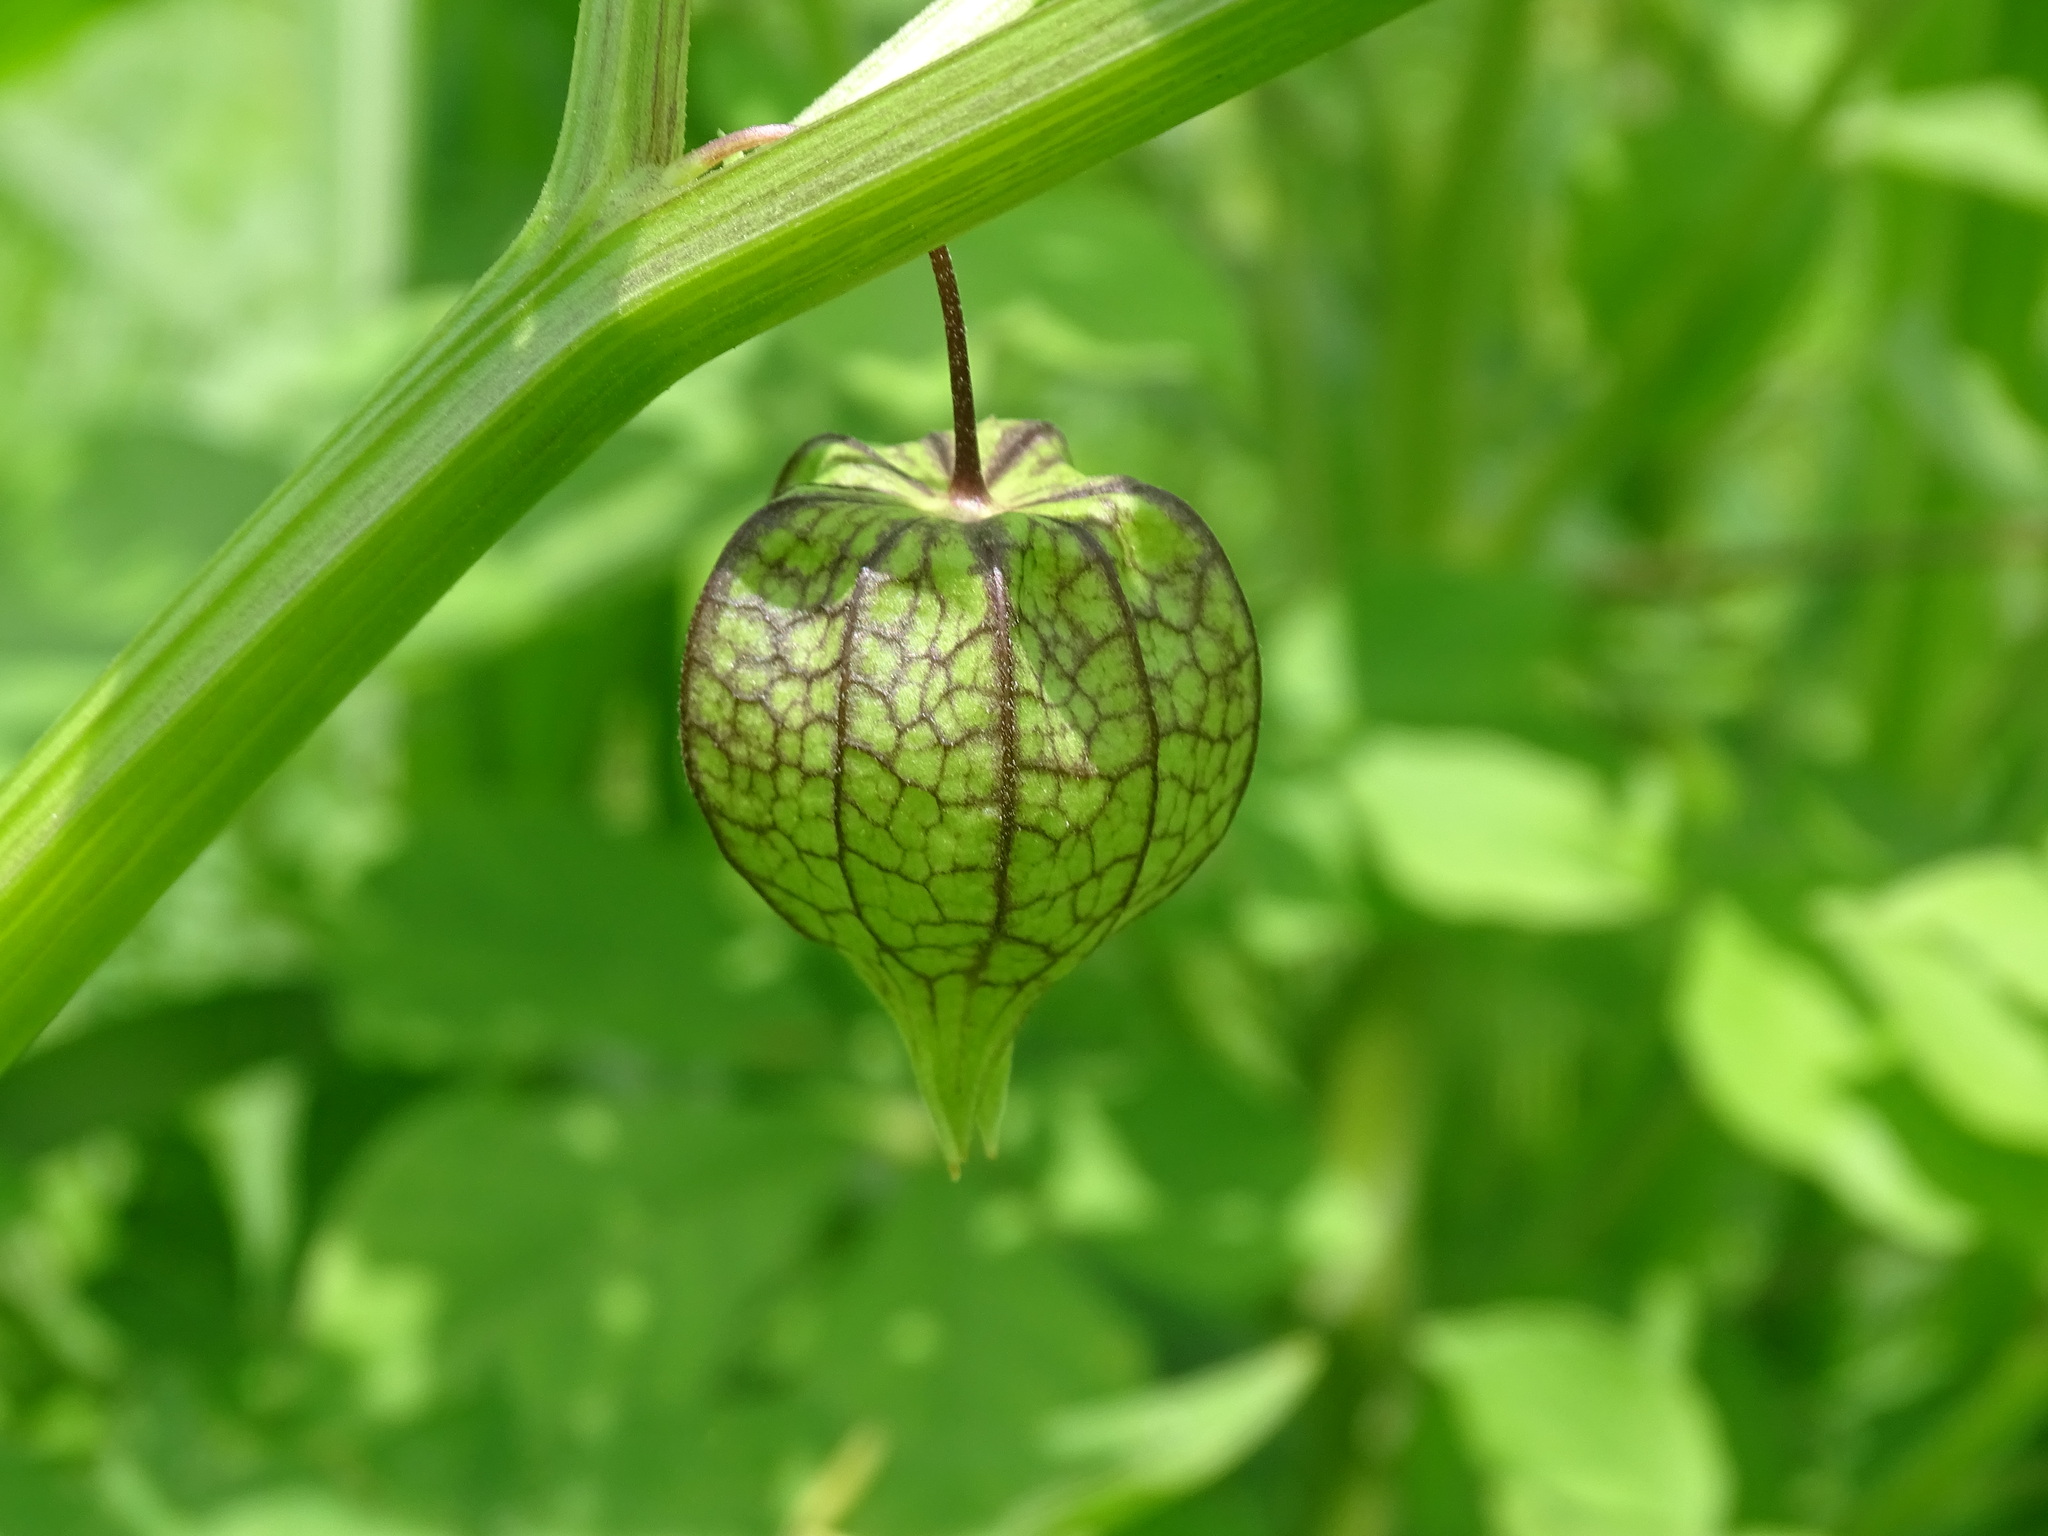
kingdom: Plantae
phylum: Tracheophyta
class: Magnoliopsida
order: Solanales
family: Solanaceae
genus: Physalis
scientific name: Physalis angulata
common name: Angular winter-cherry
